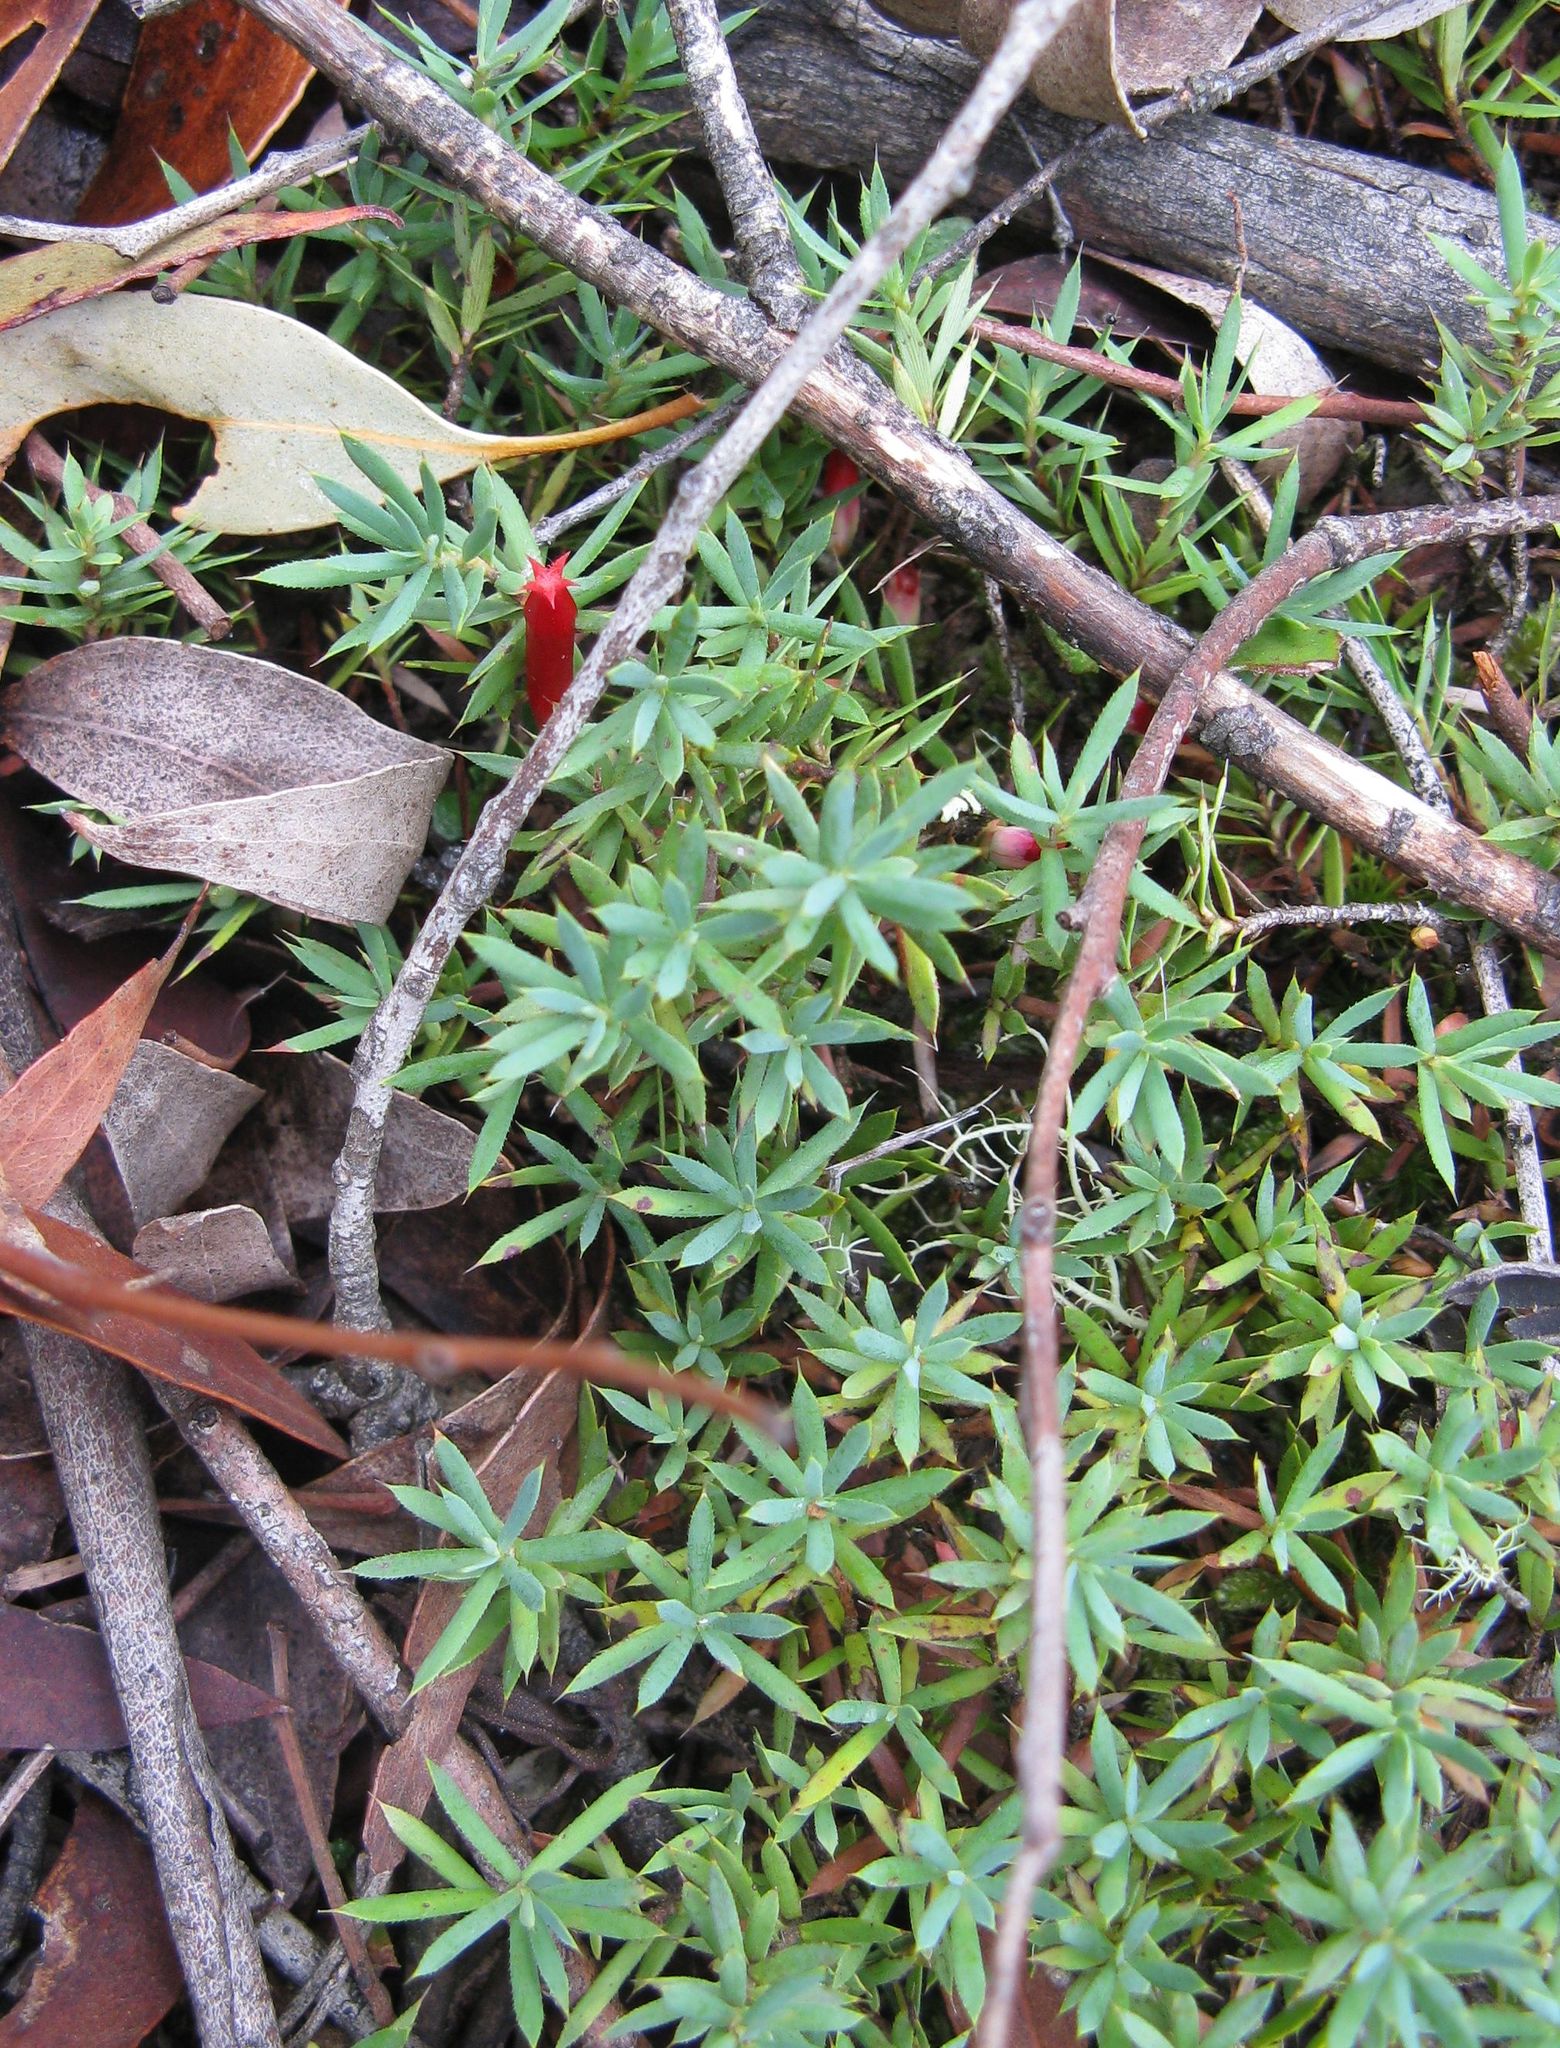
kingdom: Plantae
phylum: Tracheophyta
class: Magnoliopsida
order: Ericales
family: Ericaceae
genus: Styphelia
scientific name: Styphelia humifusa
